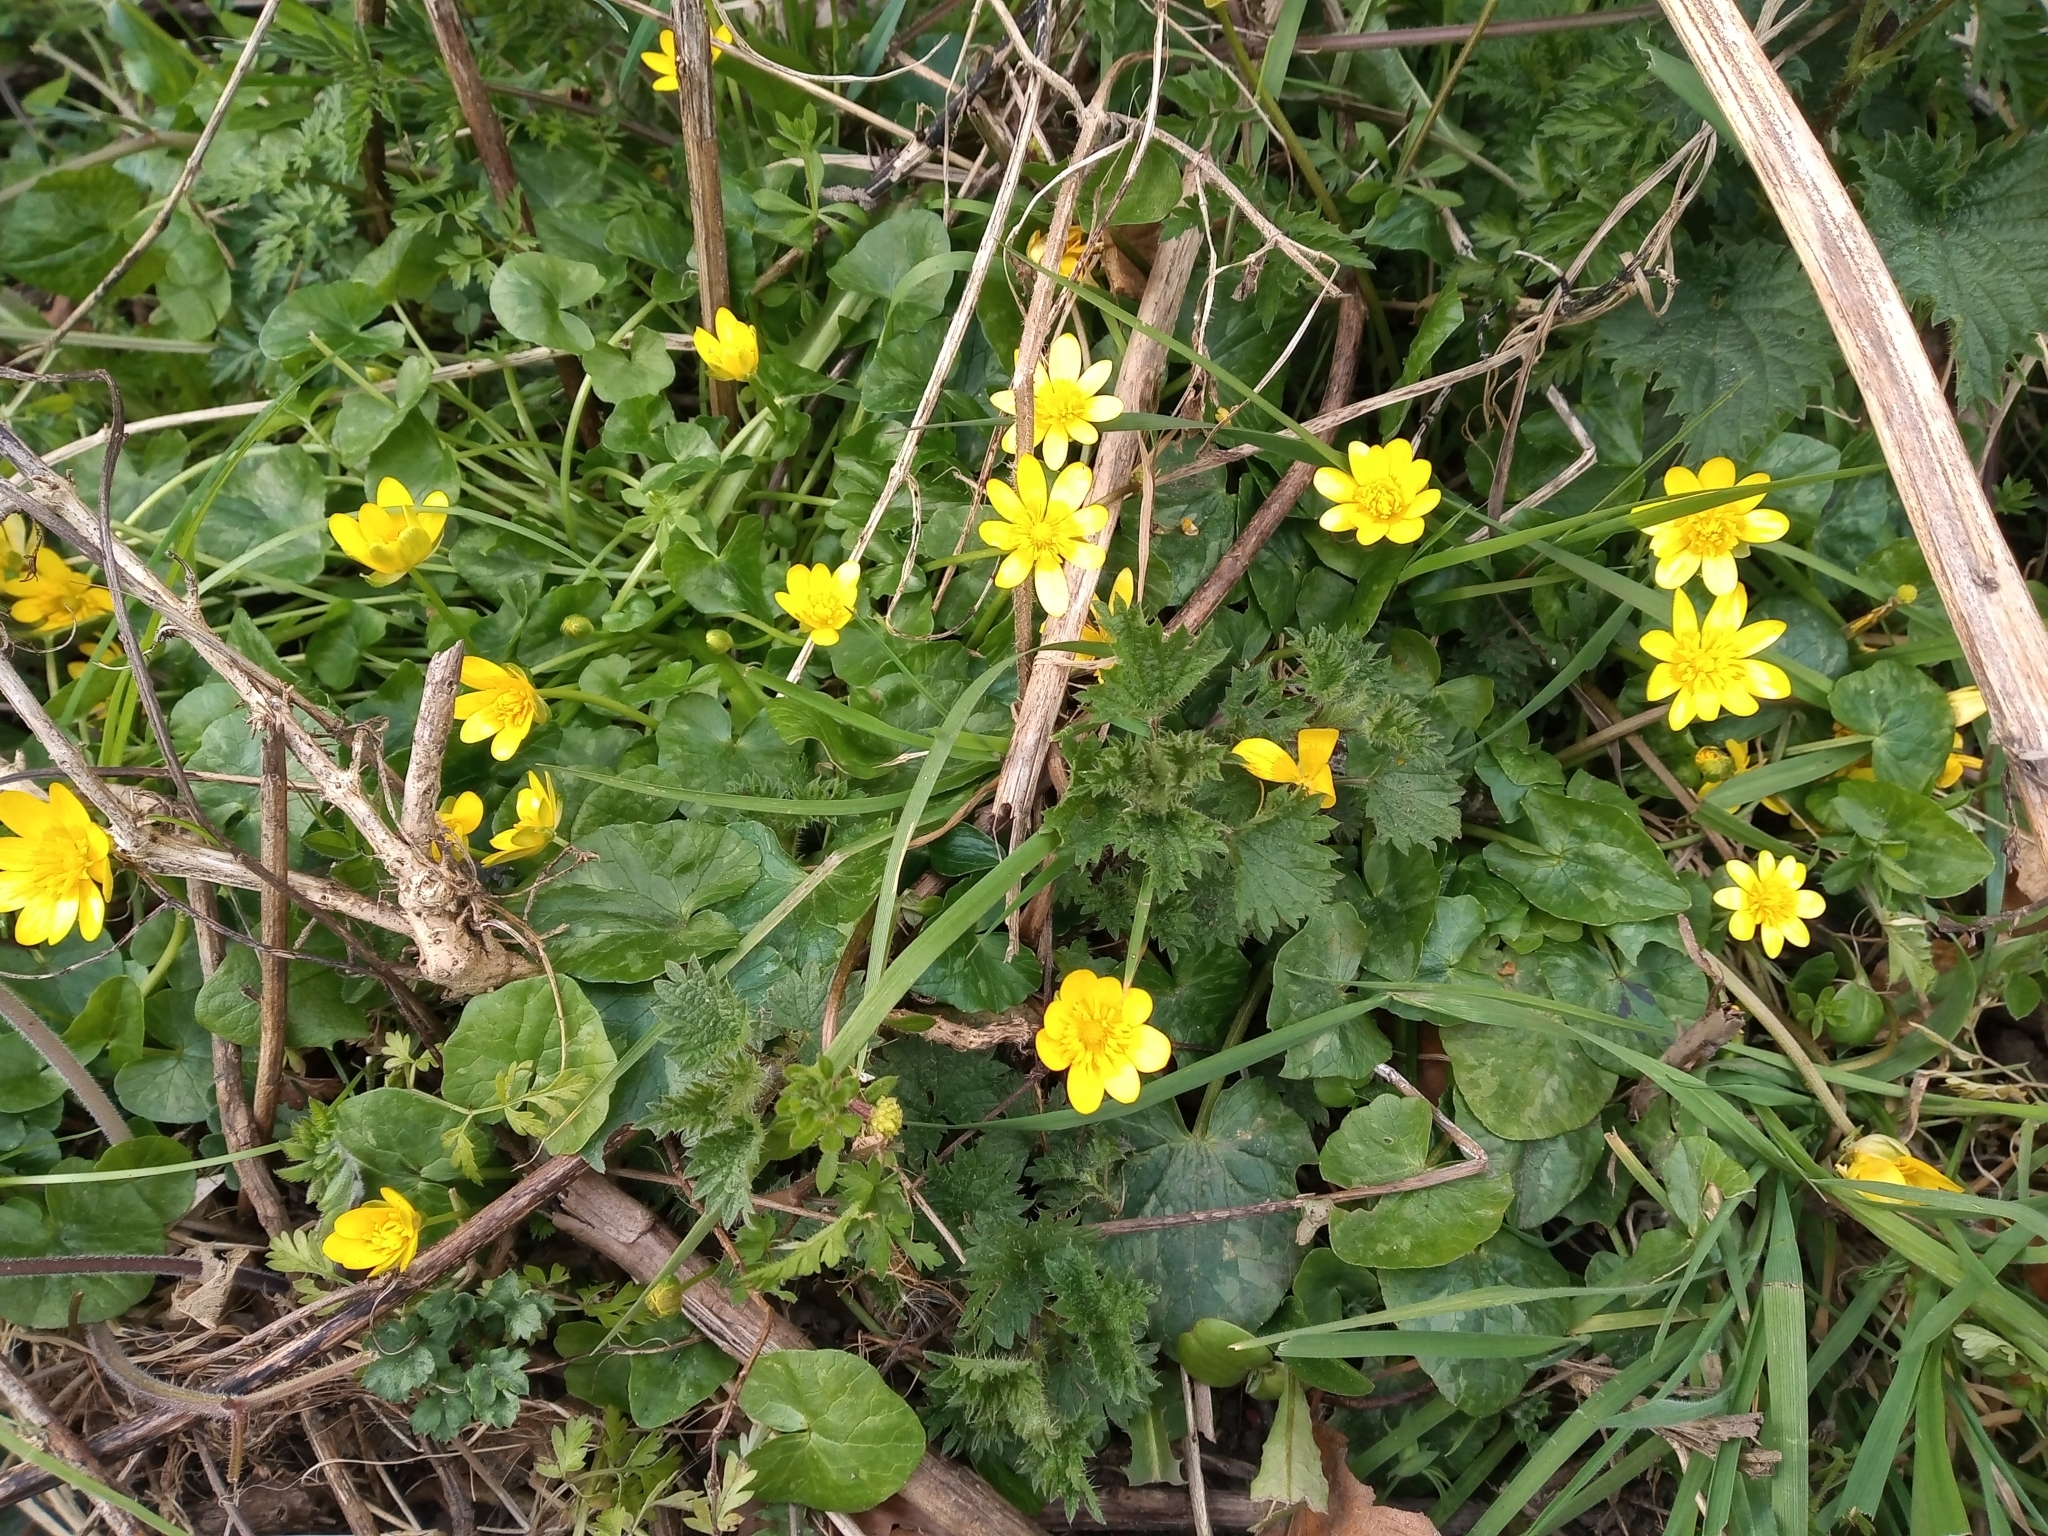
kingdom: Plantae
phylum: Tracheophyta
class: Magnoliopsida
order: Ranunculales
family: Ranunculaceae
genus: Ficaria
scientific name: Ficaria verna
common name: Lesser celandine
